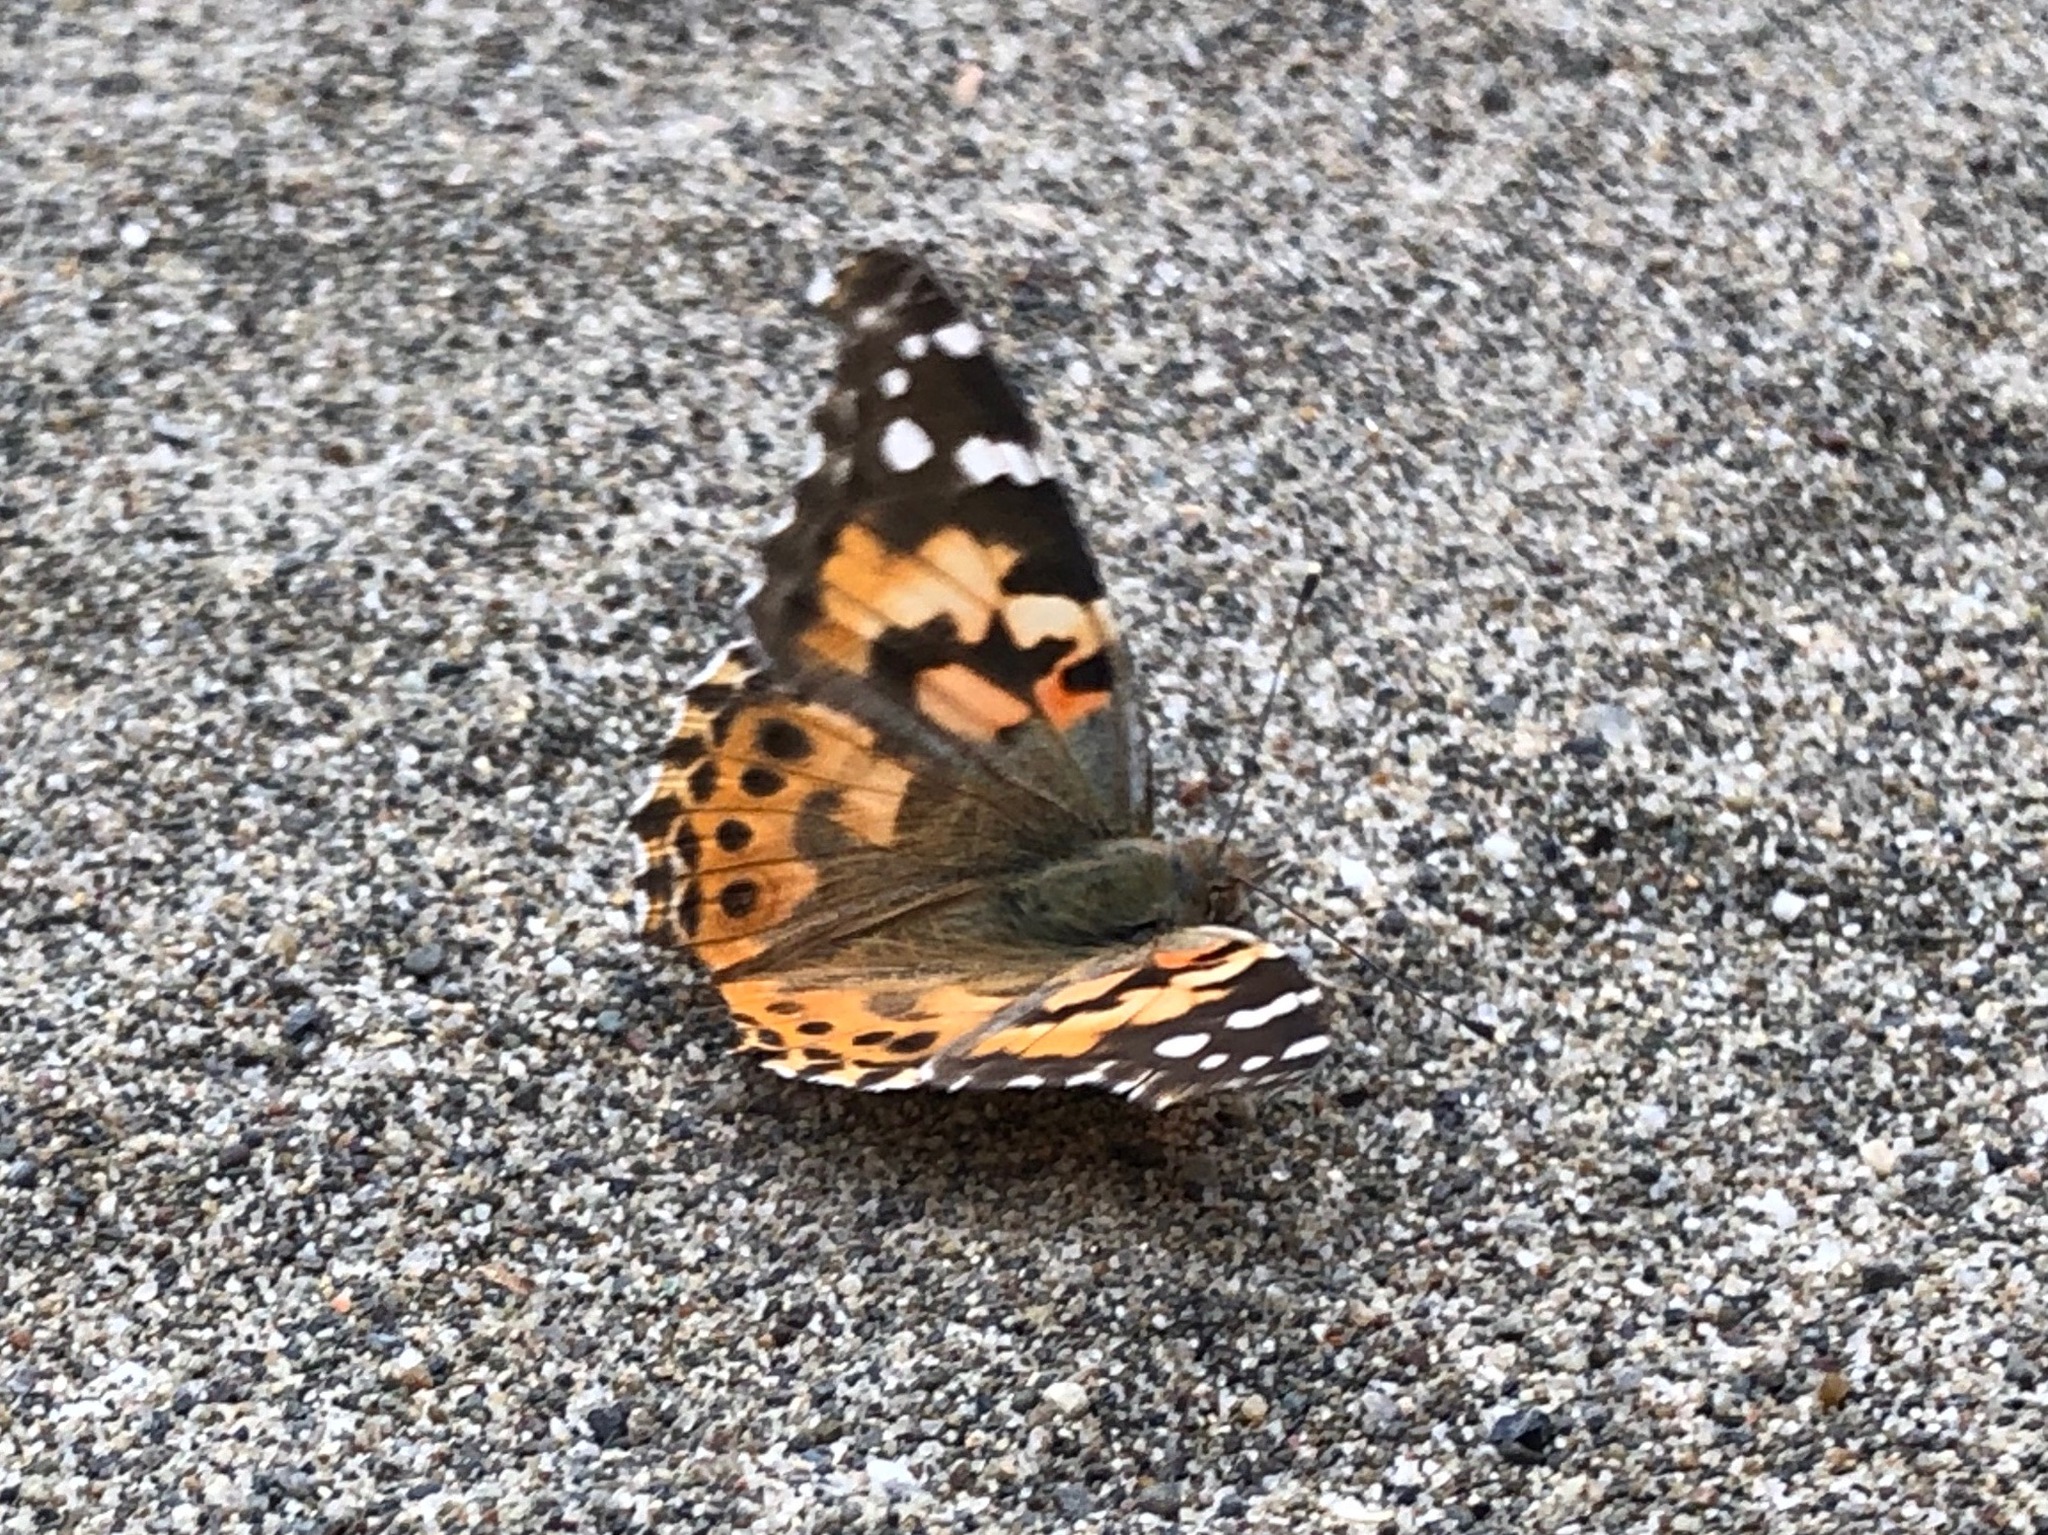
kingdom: Animalia
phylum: Arthropoda
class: Insecta
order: Lepidoptera
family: Nymphalidae
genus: Vanessa
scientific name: Vanessa cardui
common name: Painted lady
